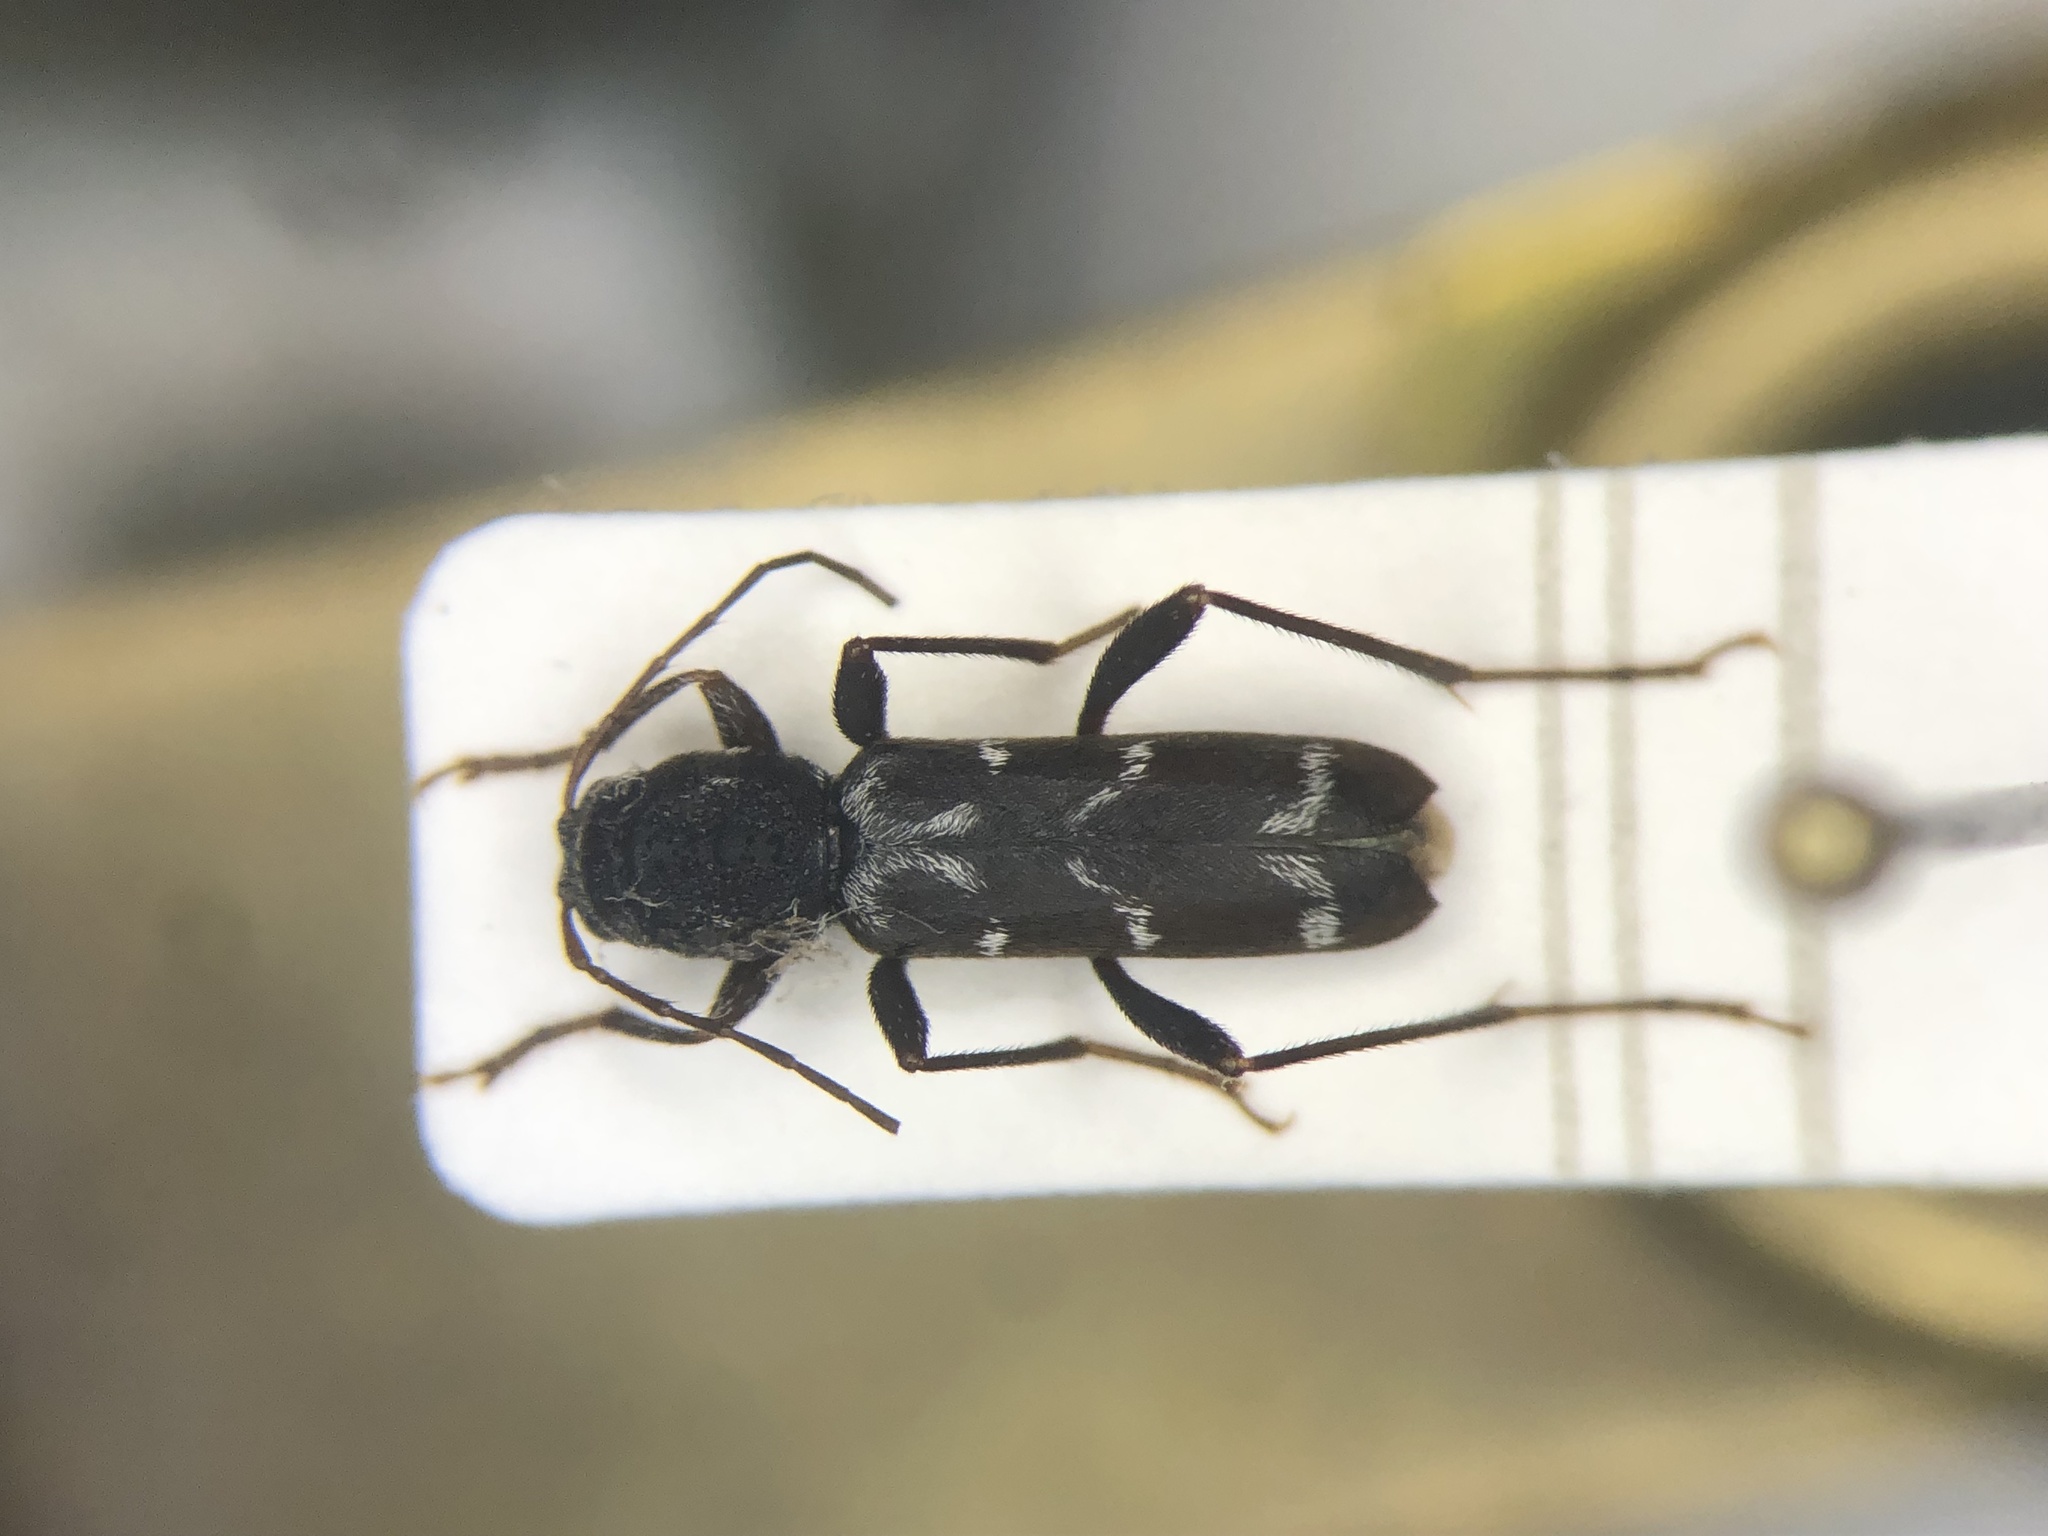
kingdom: Animalia
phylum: Arthropoda
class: Insecta
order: Coleoptera
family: Cerambycidae
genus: Neoclytus
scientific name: Neoclytus muricatulus
